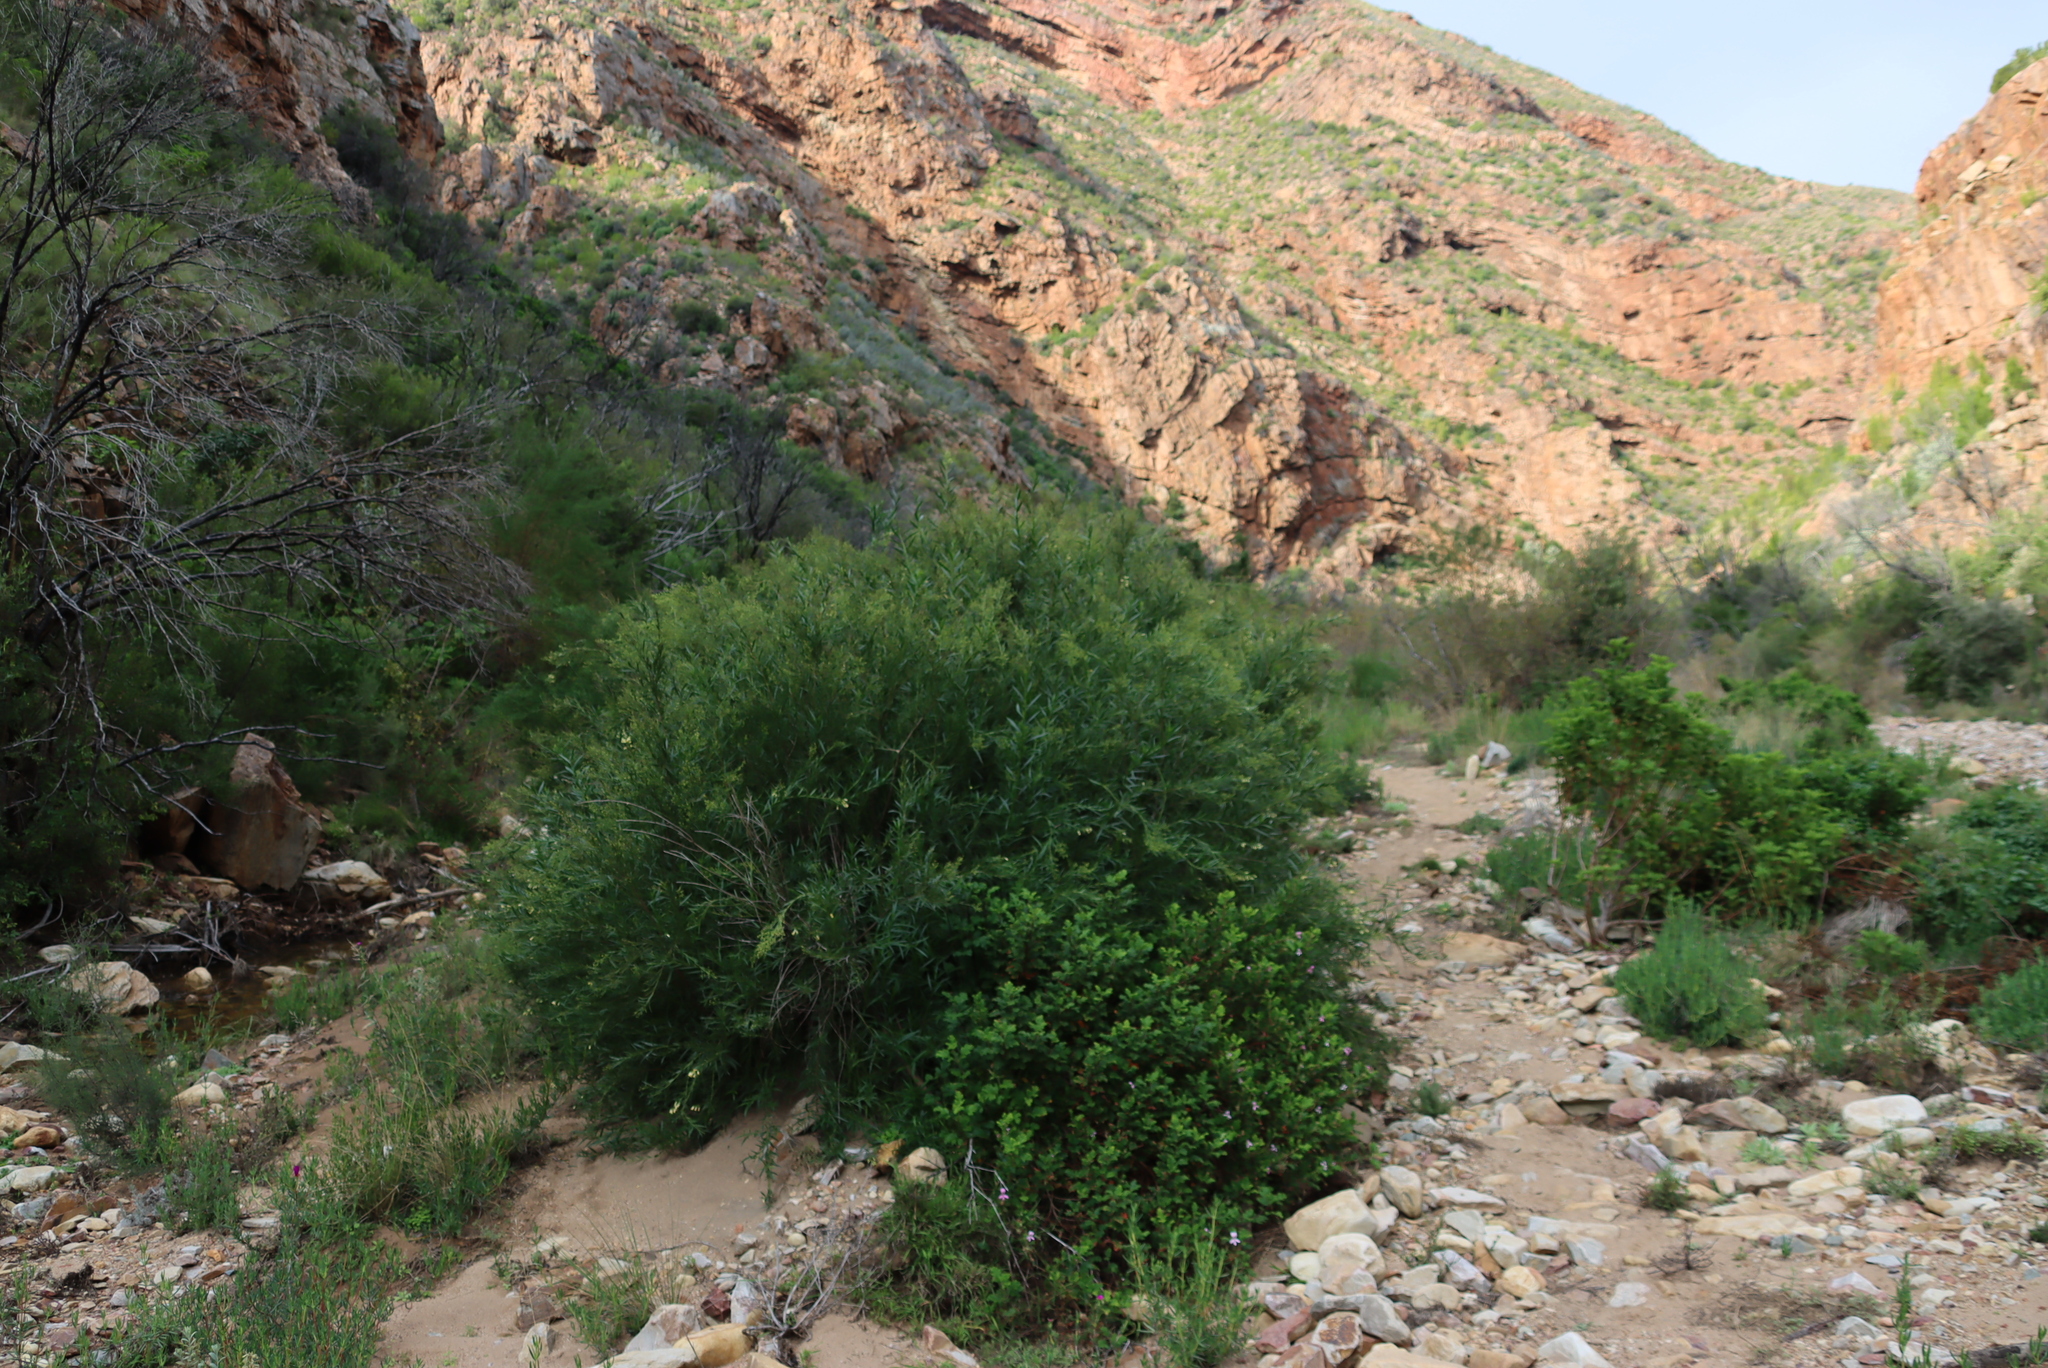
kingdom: Plantae
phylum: Tracheophyta
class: Magnoliopsida
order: Sapindales
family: Anacardiaceae
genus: Searsia
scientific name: Searsia lancea
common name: Cashew
